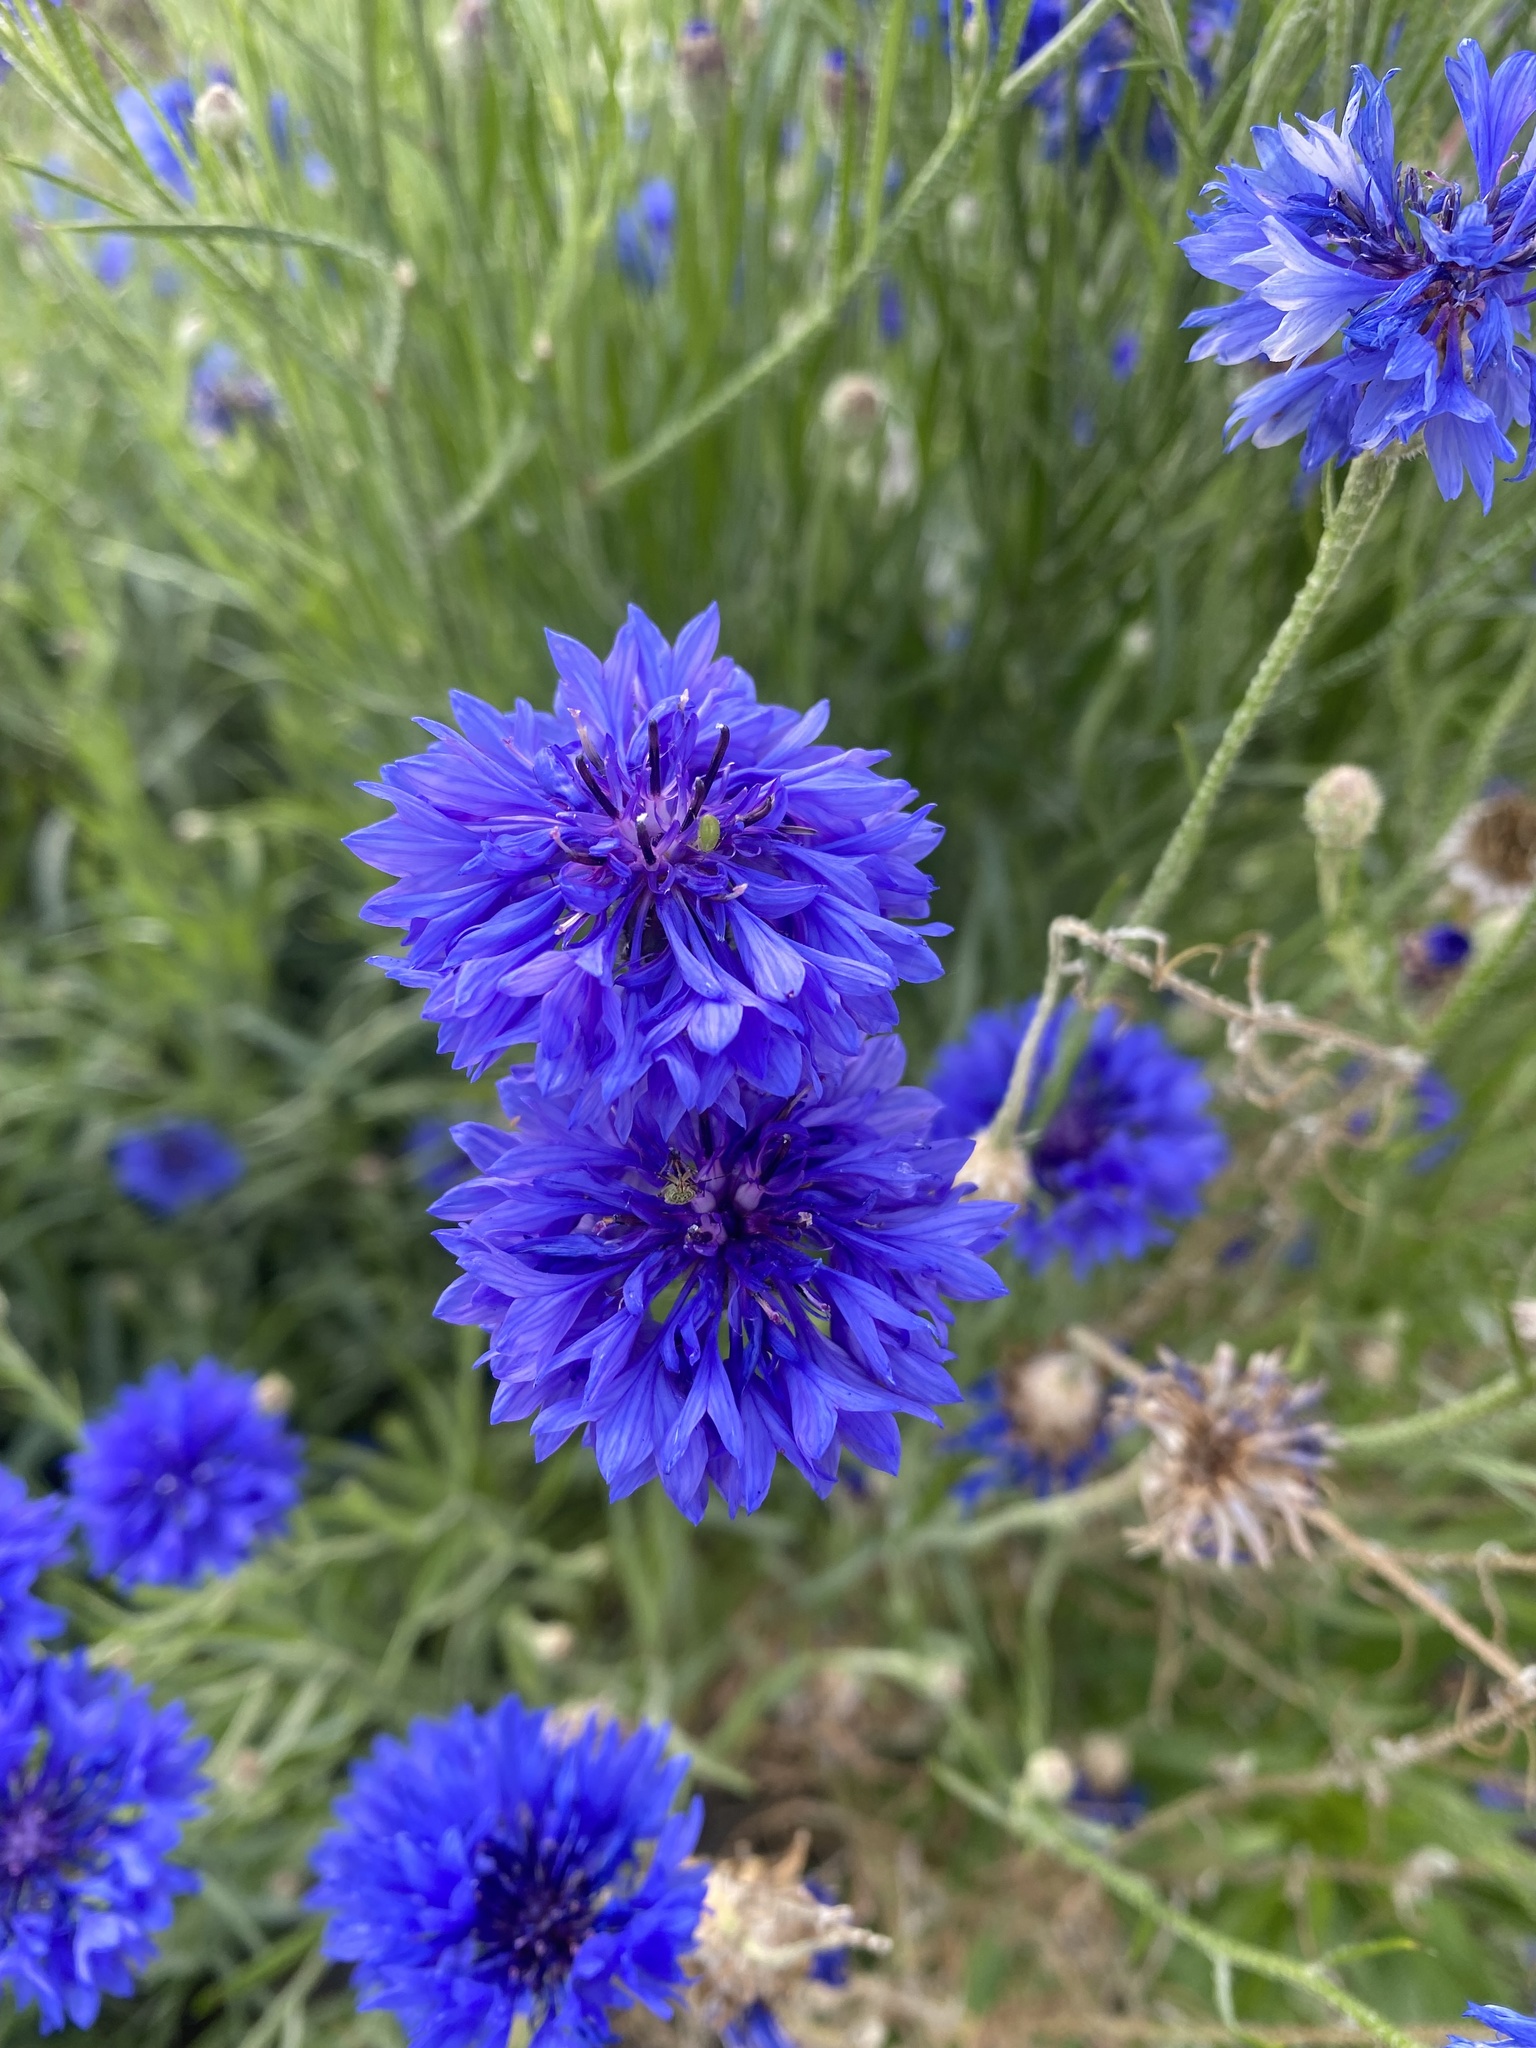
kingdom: Plantae
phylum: Tracheophyta
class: Magnoliopsida
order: Asterales
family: Asteraceae
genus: Centaurea
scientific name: Centaurea cyanus
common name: Cornflower
